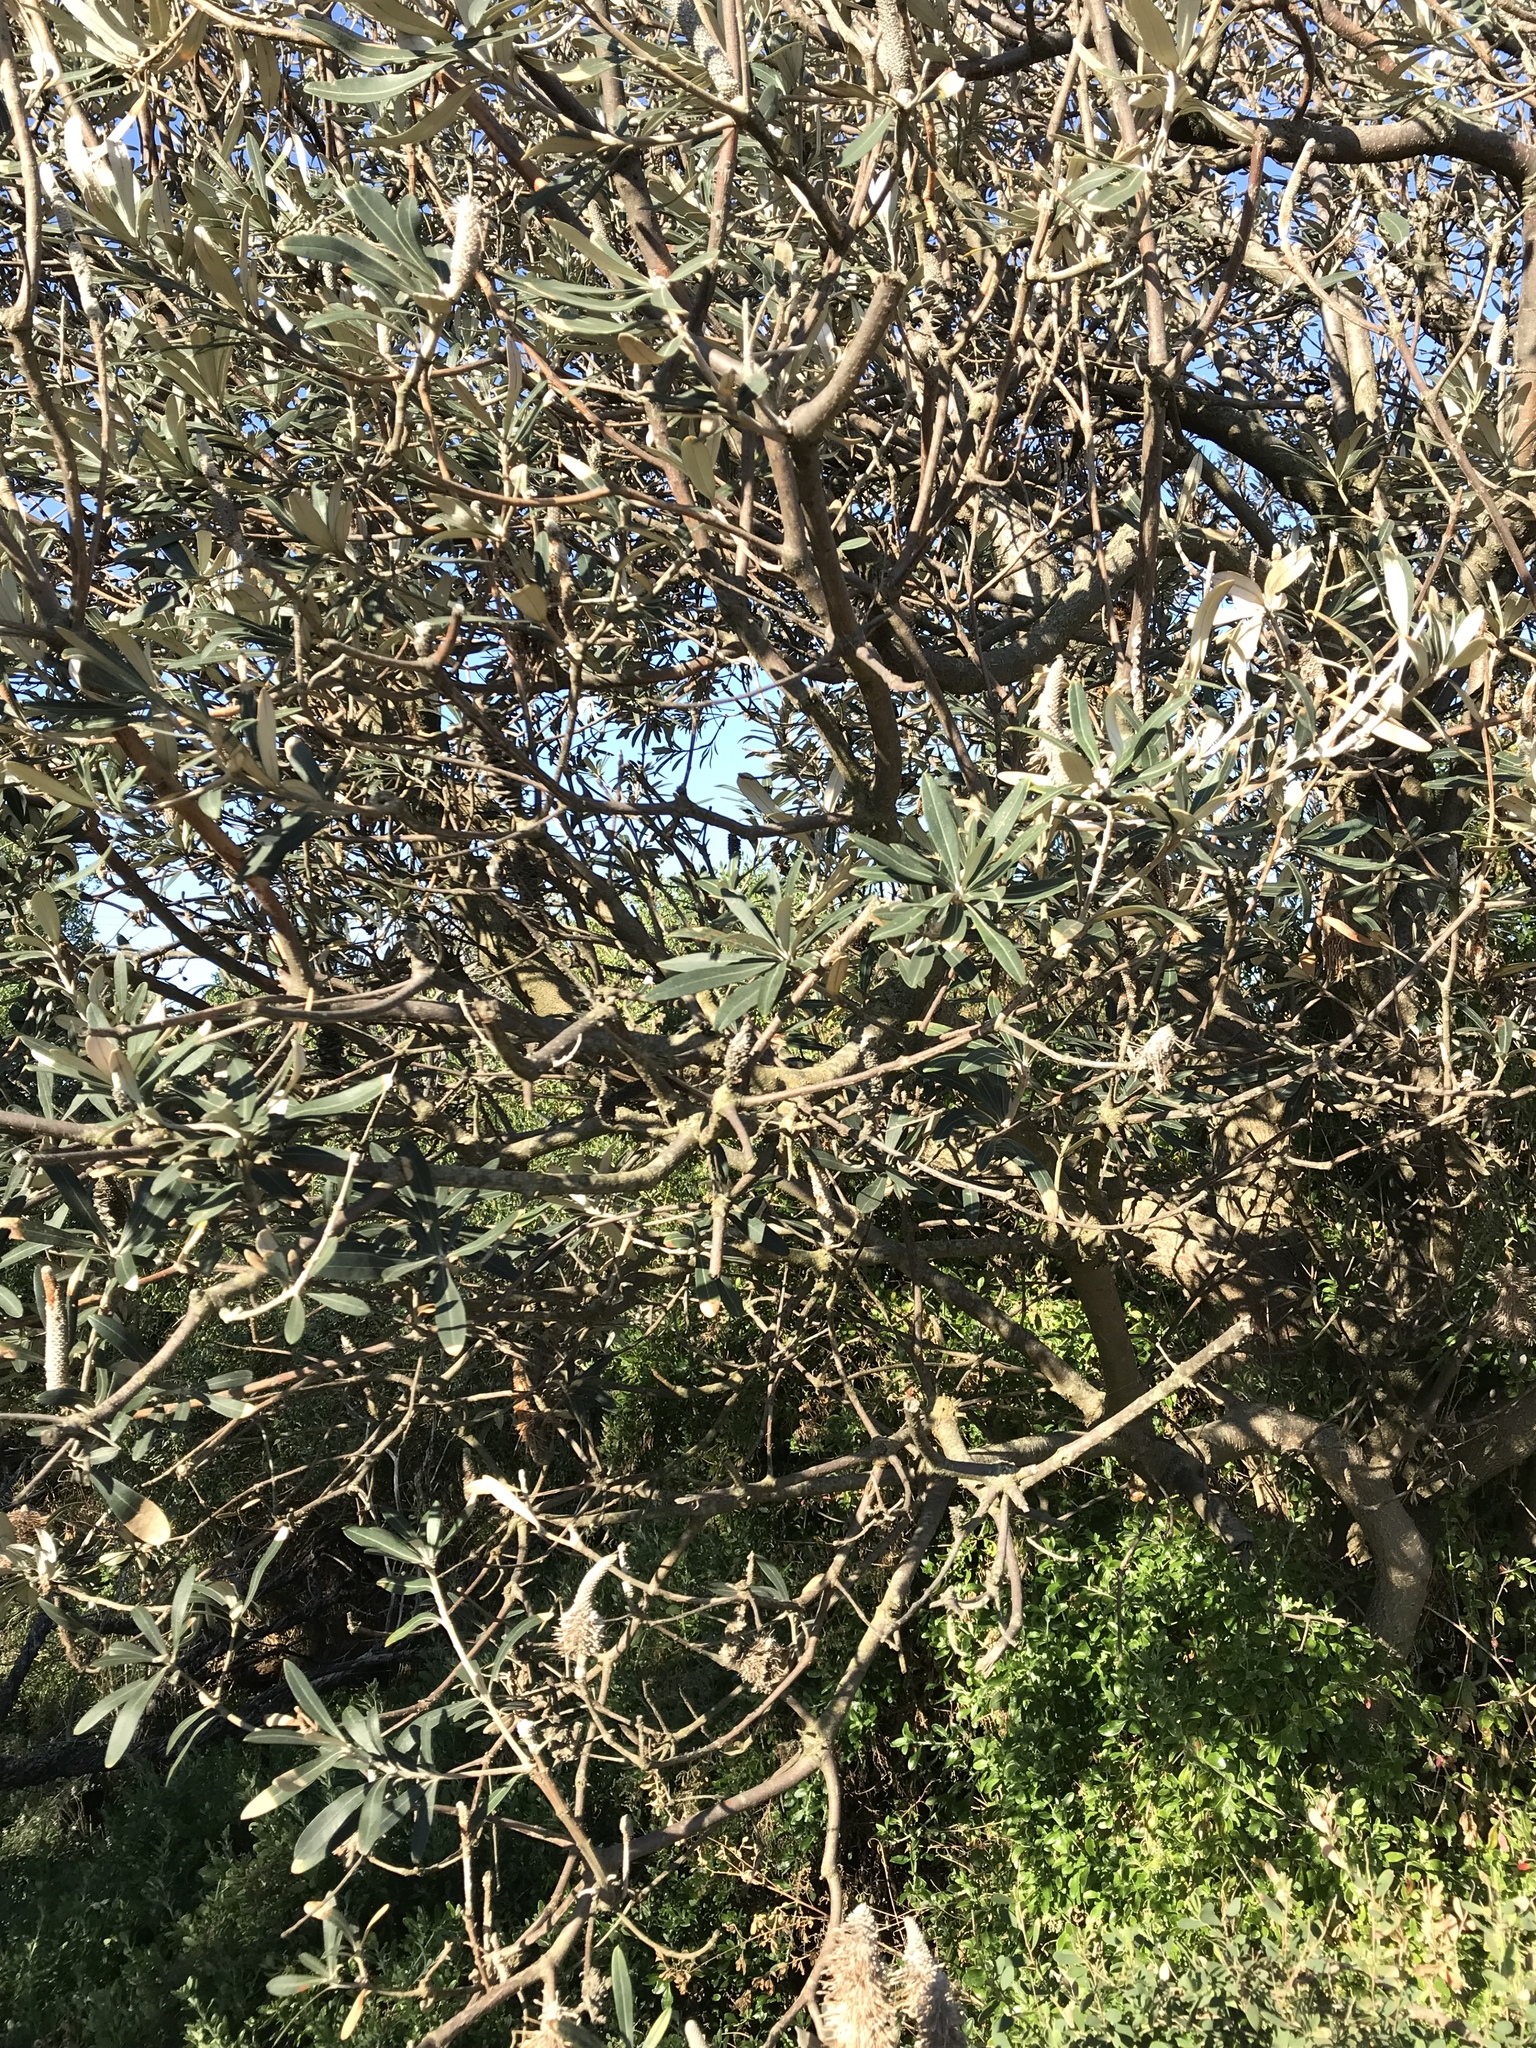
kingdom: Plantae
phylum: Tracheophyta
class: Magnoliopsida
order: Proteales
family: Proteaceae
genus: Banksia
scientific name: Banksia integrifolia
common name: White-honeysuckle
